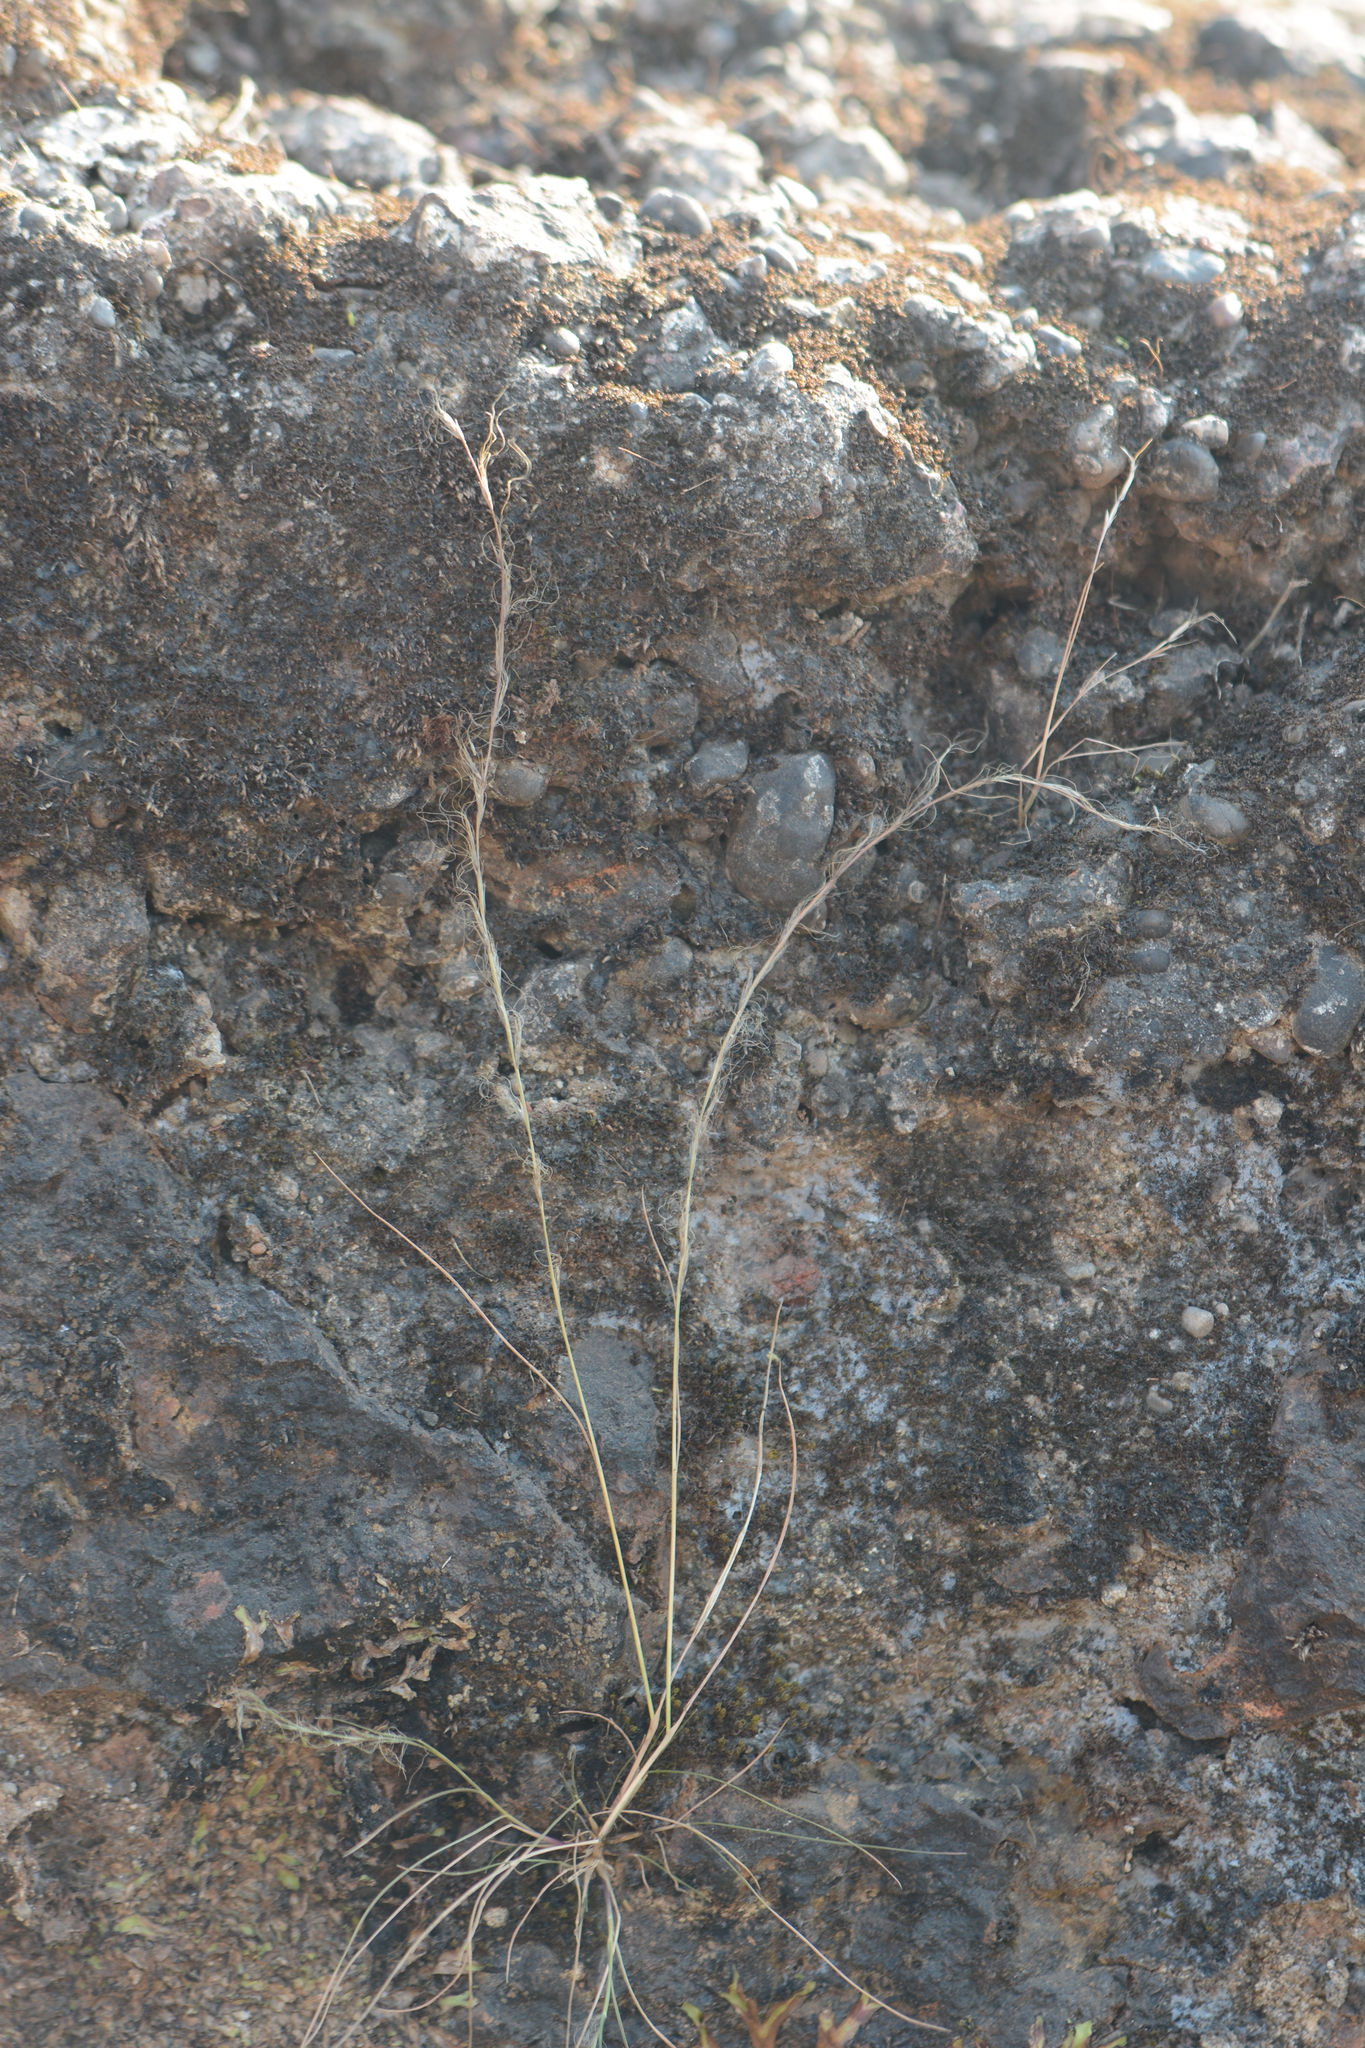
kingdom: Plantae
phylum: Tracheophyta
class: Liliopsida
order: Poales
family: Poaceae
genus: Tripogon
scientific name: Tripogon capillatus
